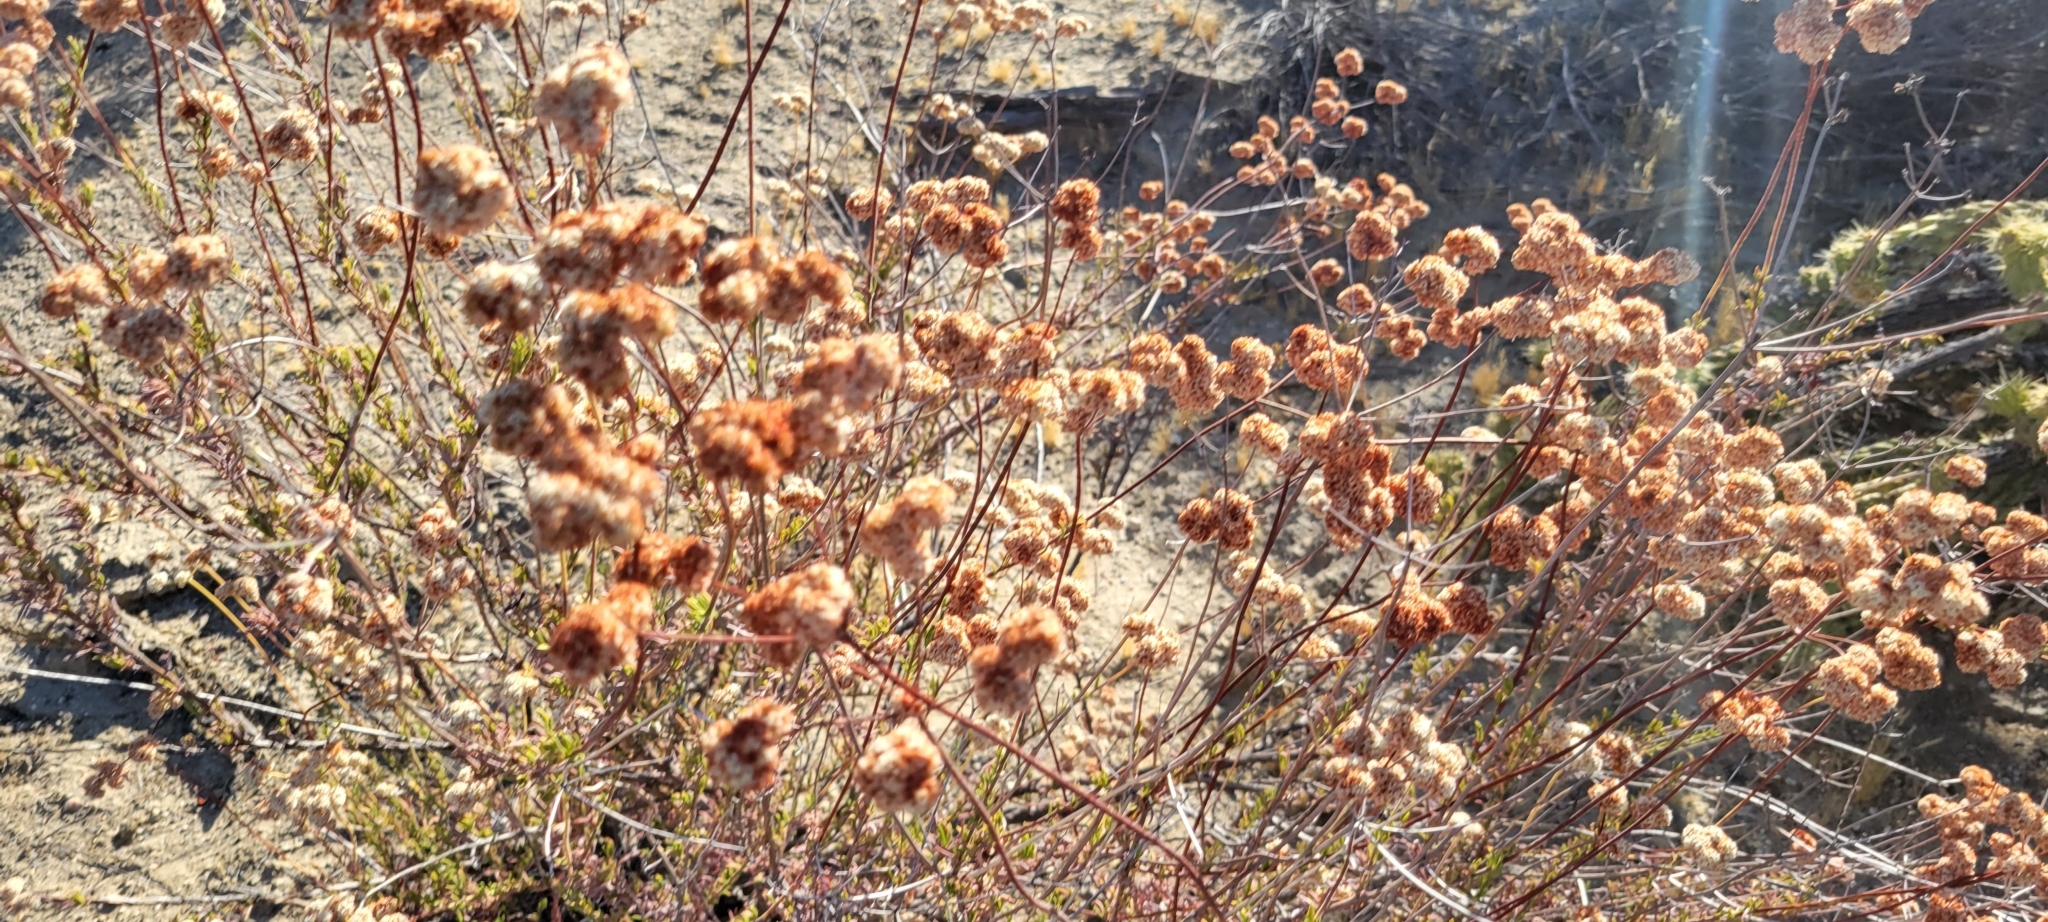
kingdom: Plantae
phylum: Tracheophyta
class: Magnoliopsida
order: Caryophyllales
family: Polygonaceae
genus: Eriogonum
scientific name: Eriogonum fasciculatum
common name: California wild buckwheat
